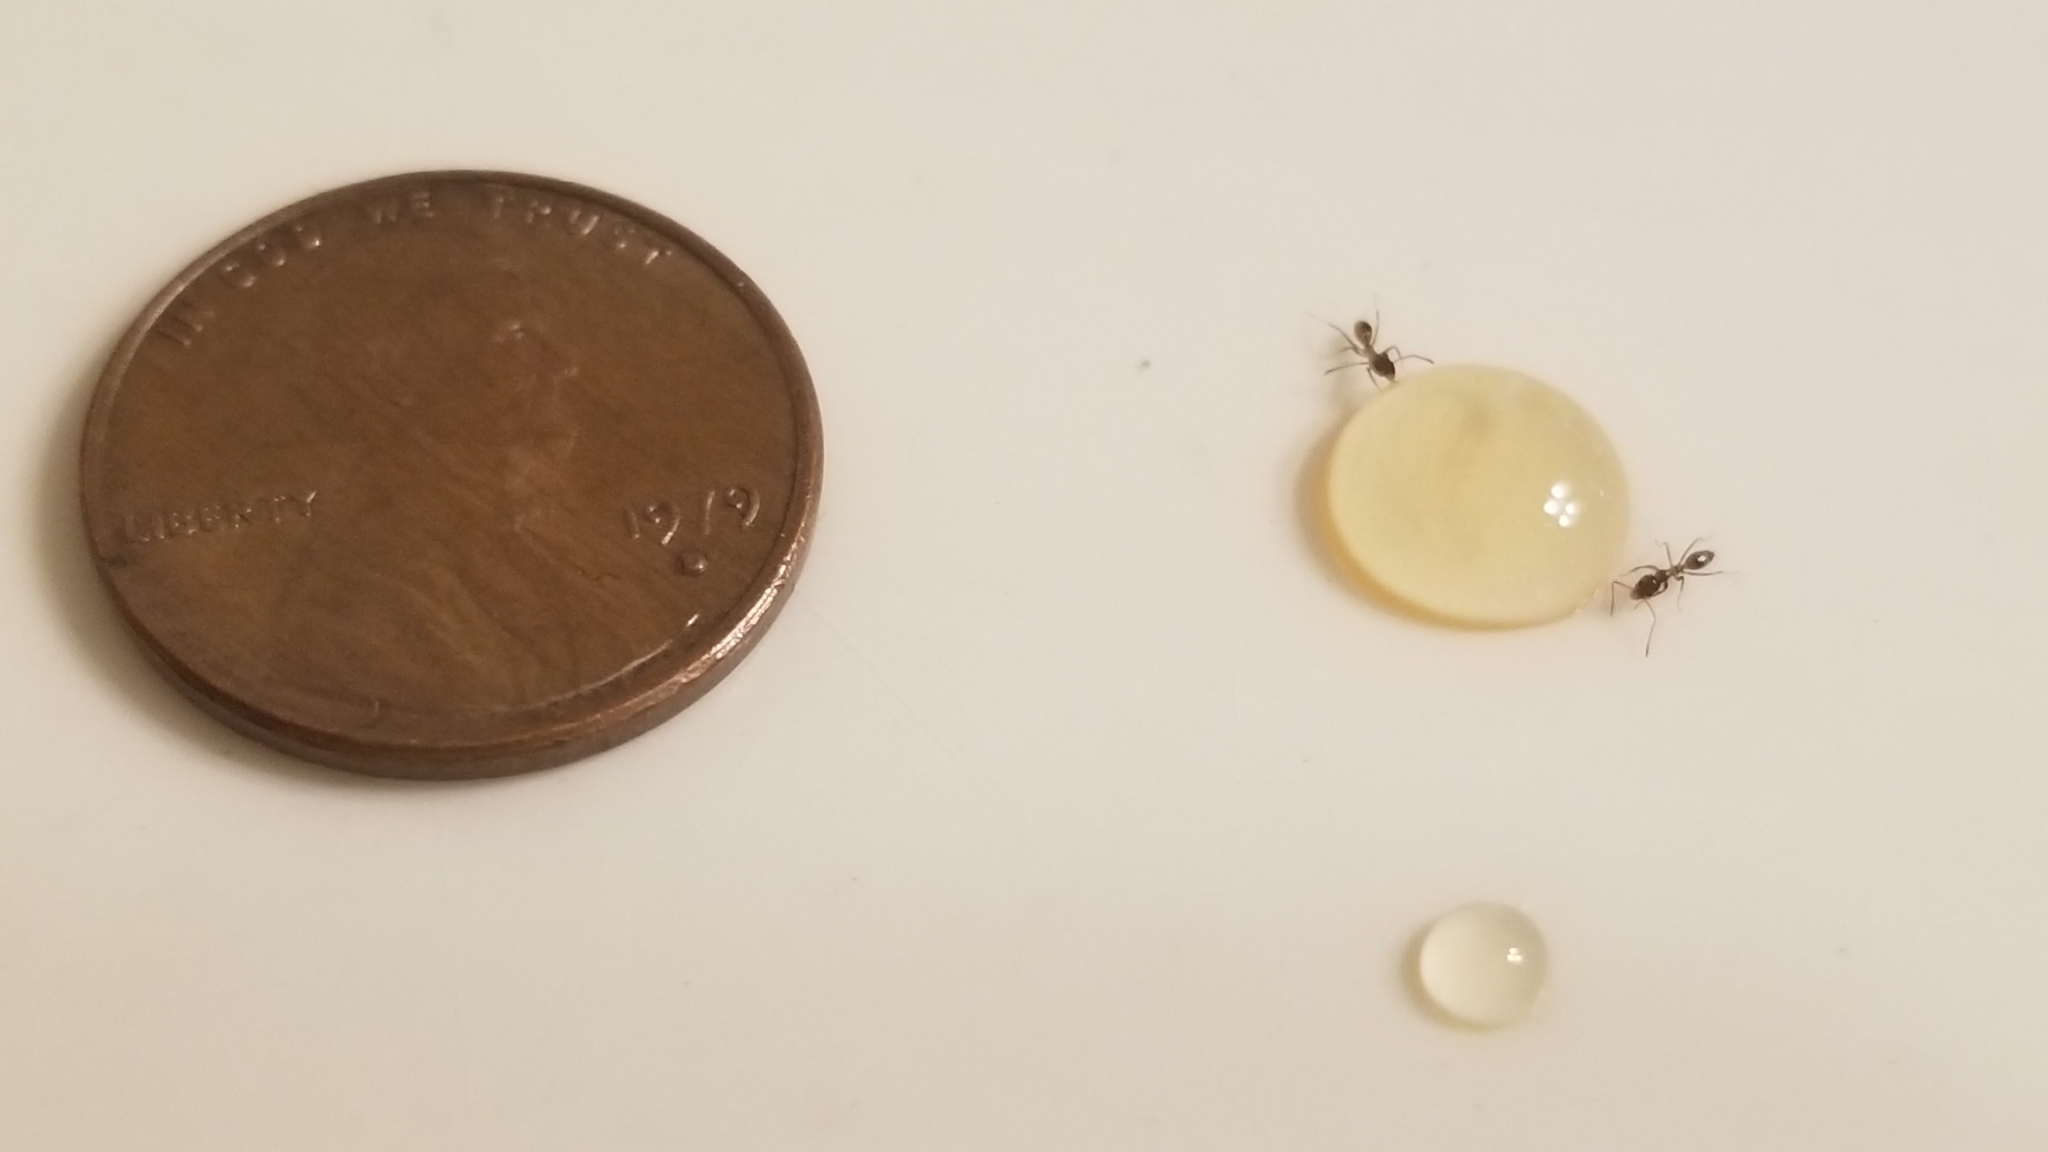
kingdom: Animalia
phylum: Arthropoda
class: Insecta
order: Hymenoptera
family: Formicidae
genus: Linepithema
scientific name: Linepithema humile
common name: Argentine ant
